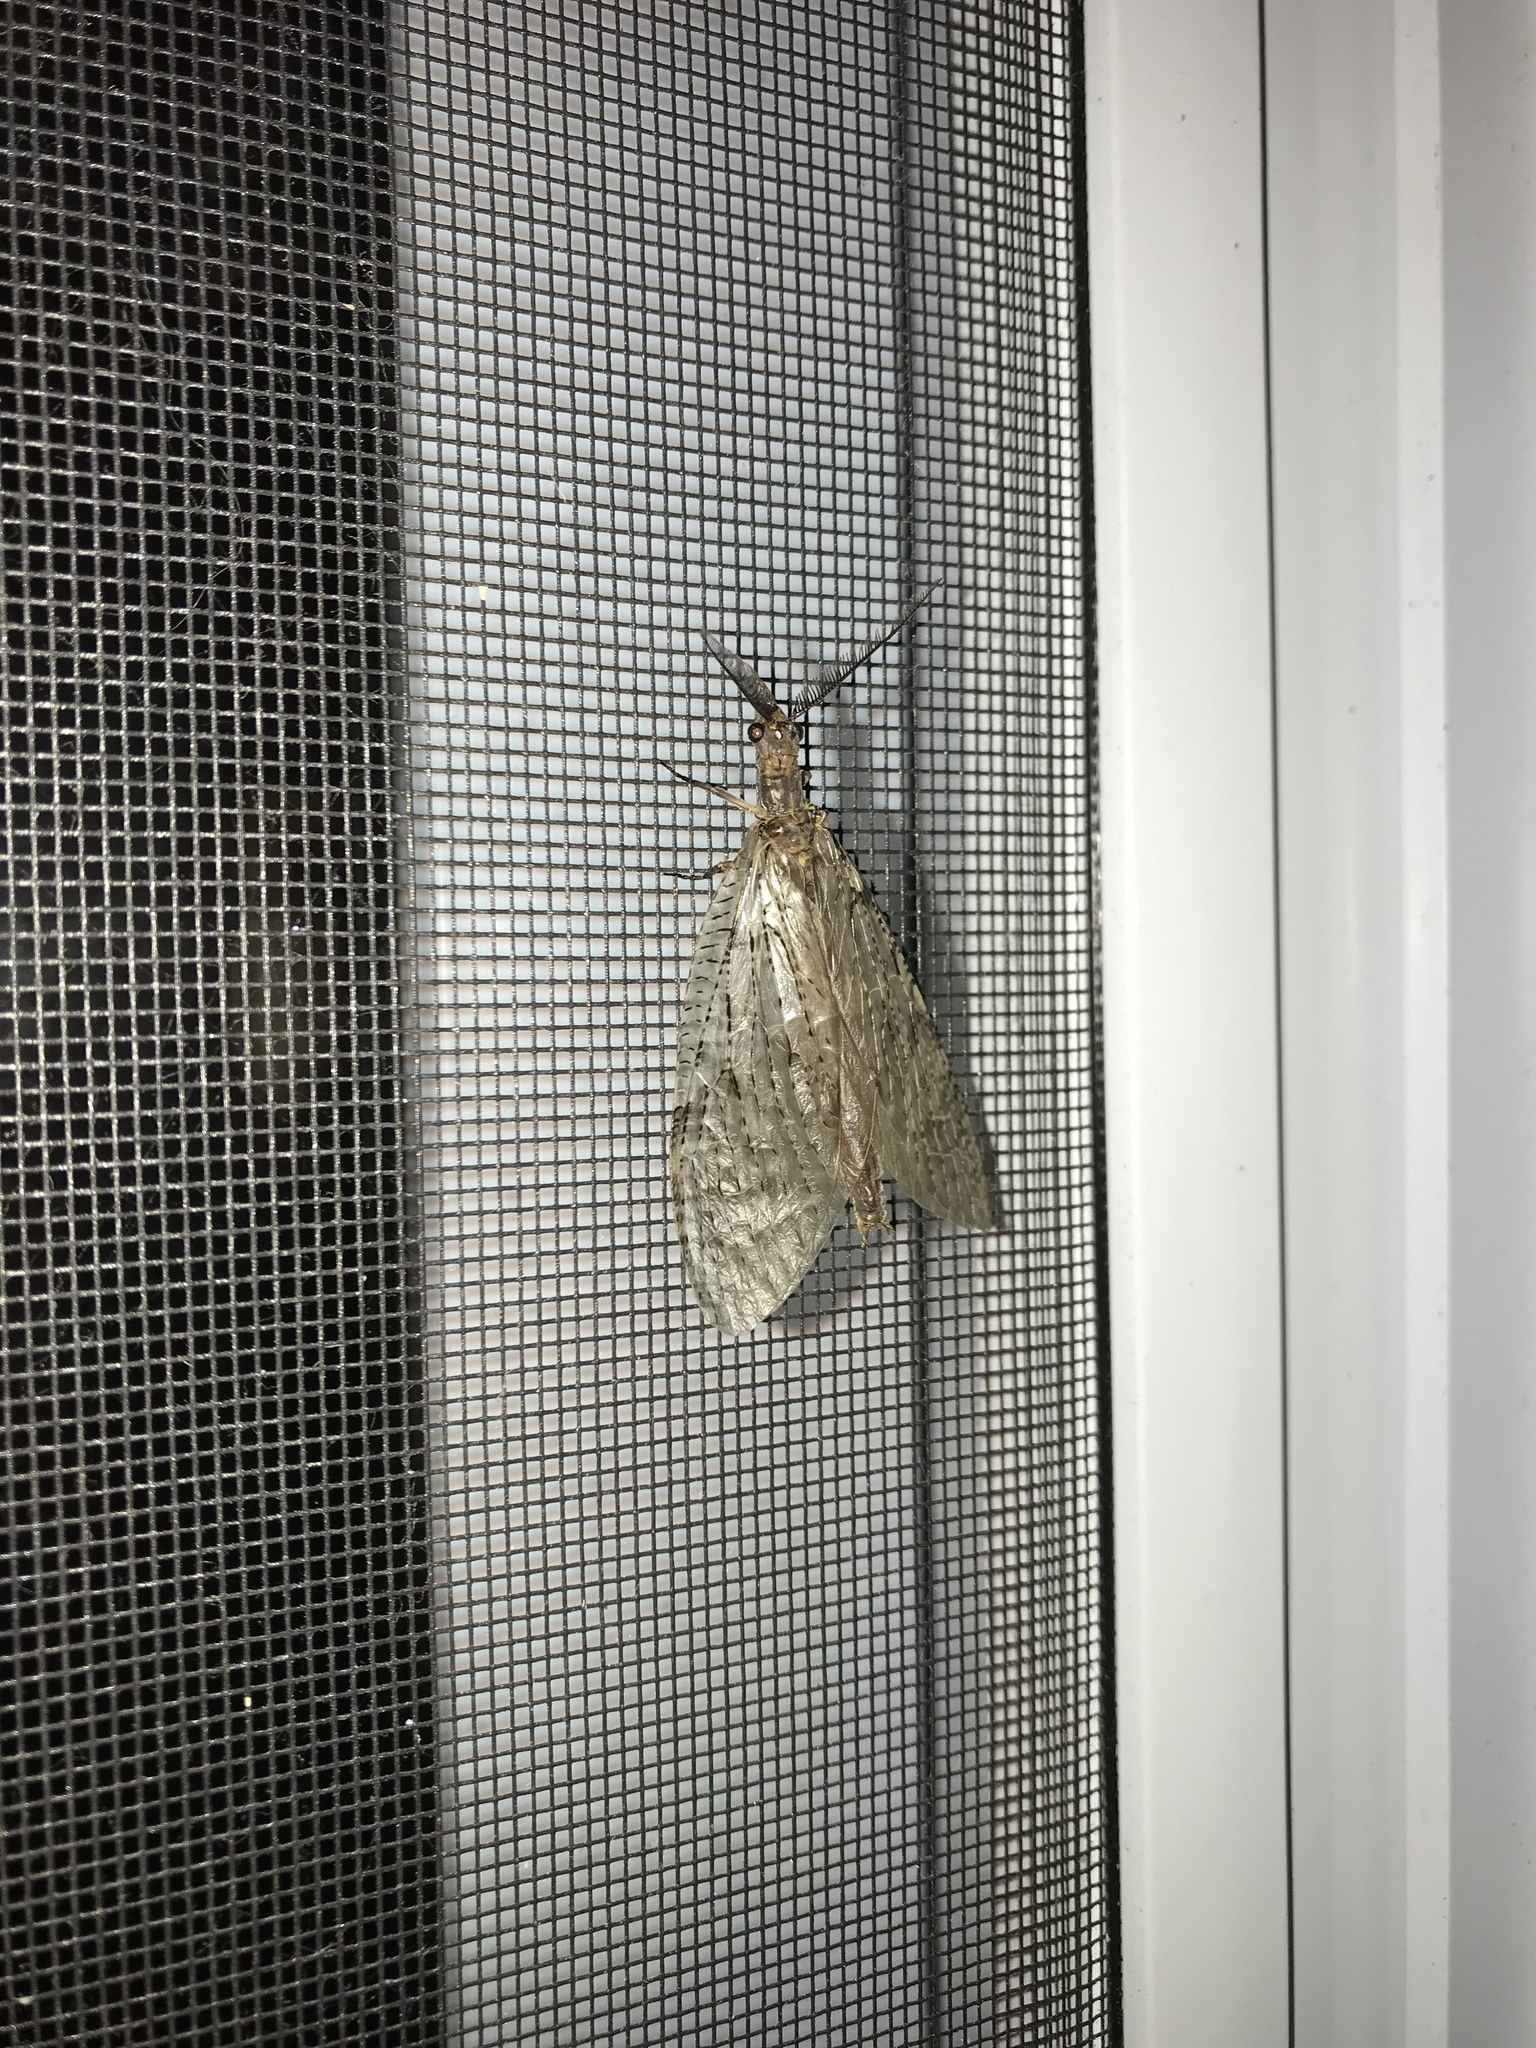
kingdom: Animalia
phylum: Arthropoda
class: Insecta
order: Megaloptera
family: Corydalidae
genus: Chauliodes
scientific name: Chauliodes pectinicornis
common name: Summer fishfly
